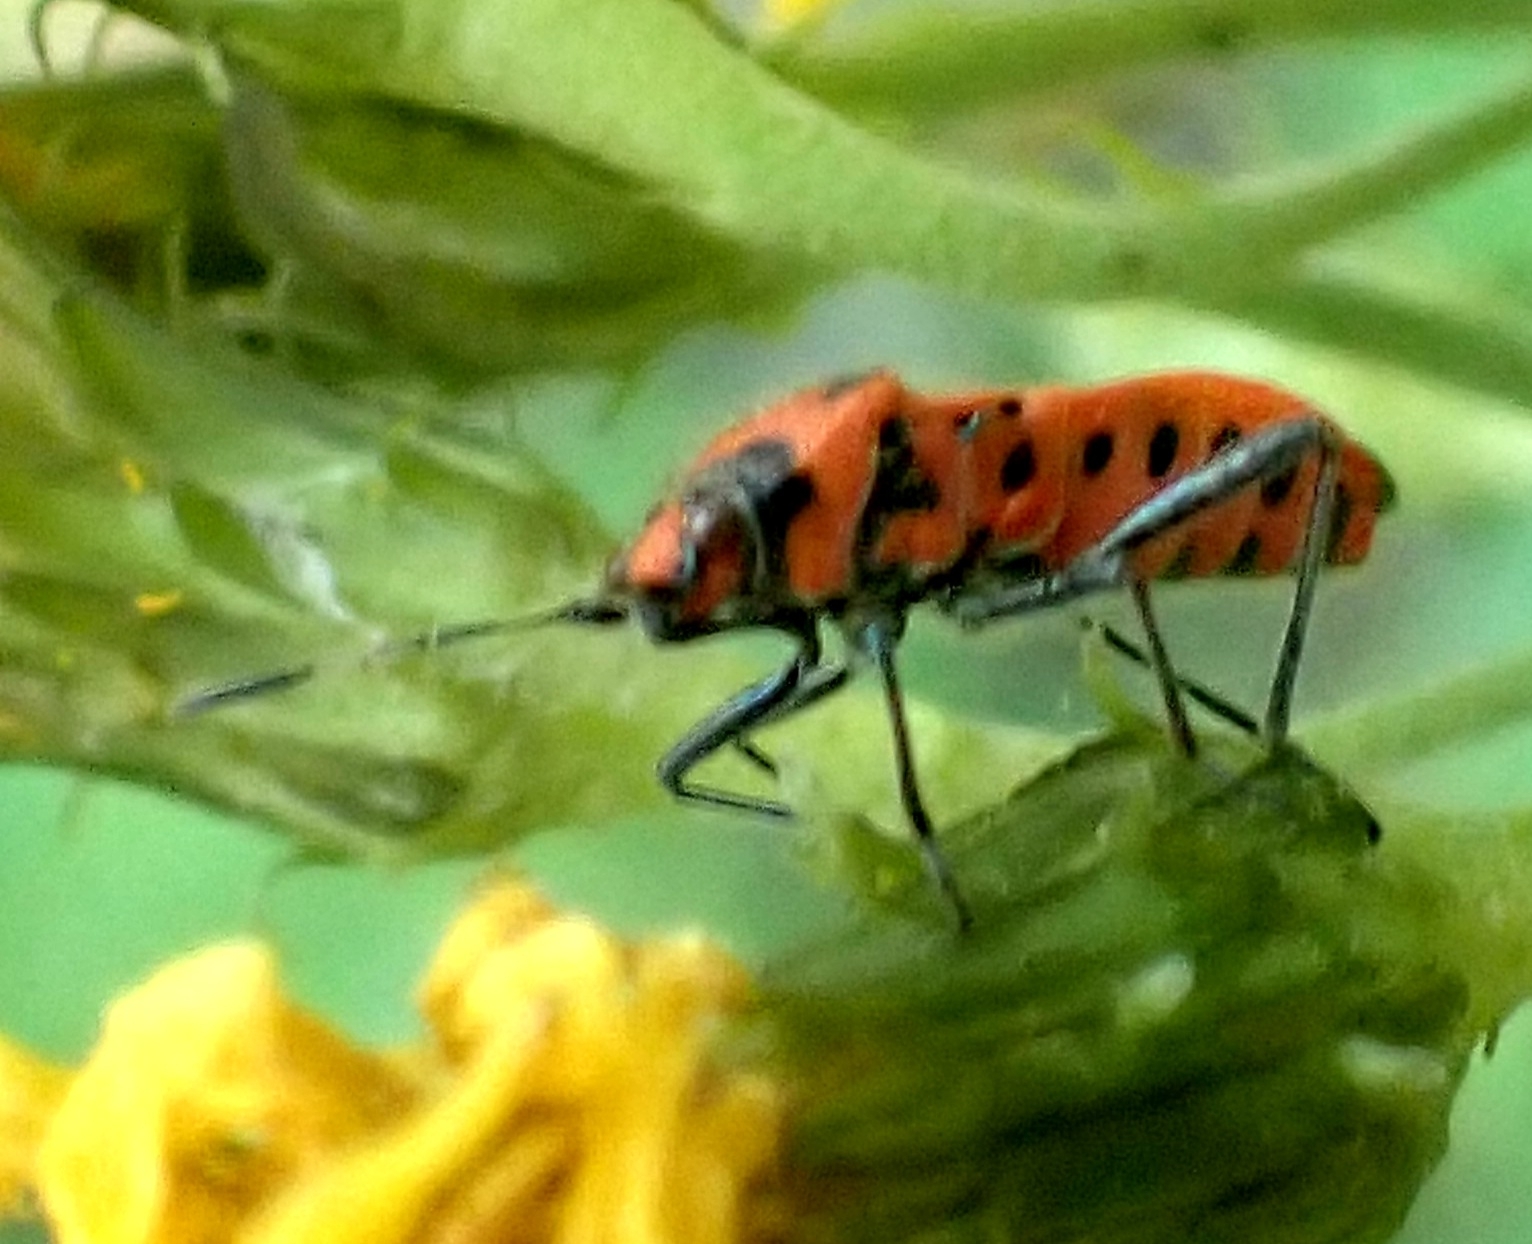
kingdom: Animalia
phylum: Arthropoda
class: Insecta
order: Hemiptera
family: Rhopalidae
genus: Corizus
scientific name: Corizus hyoscyami
